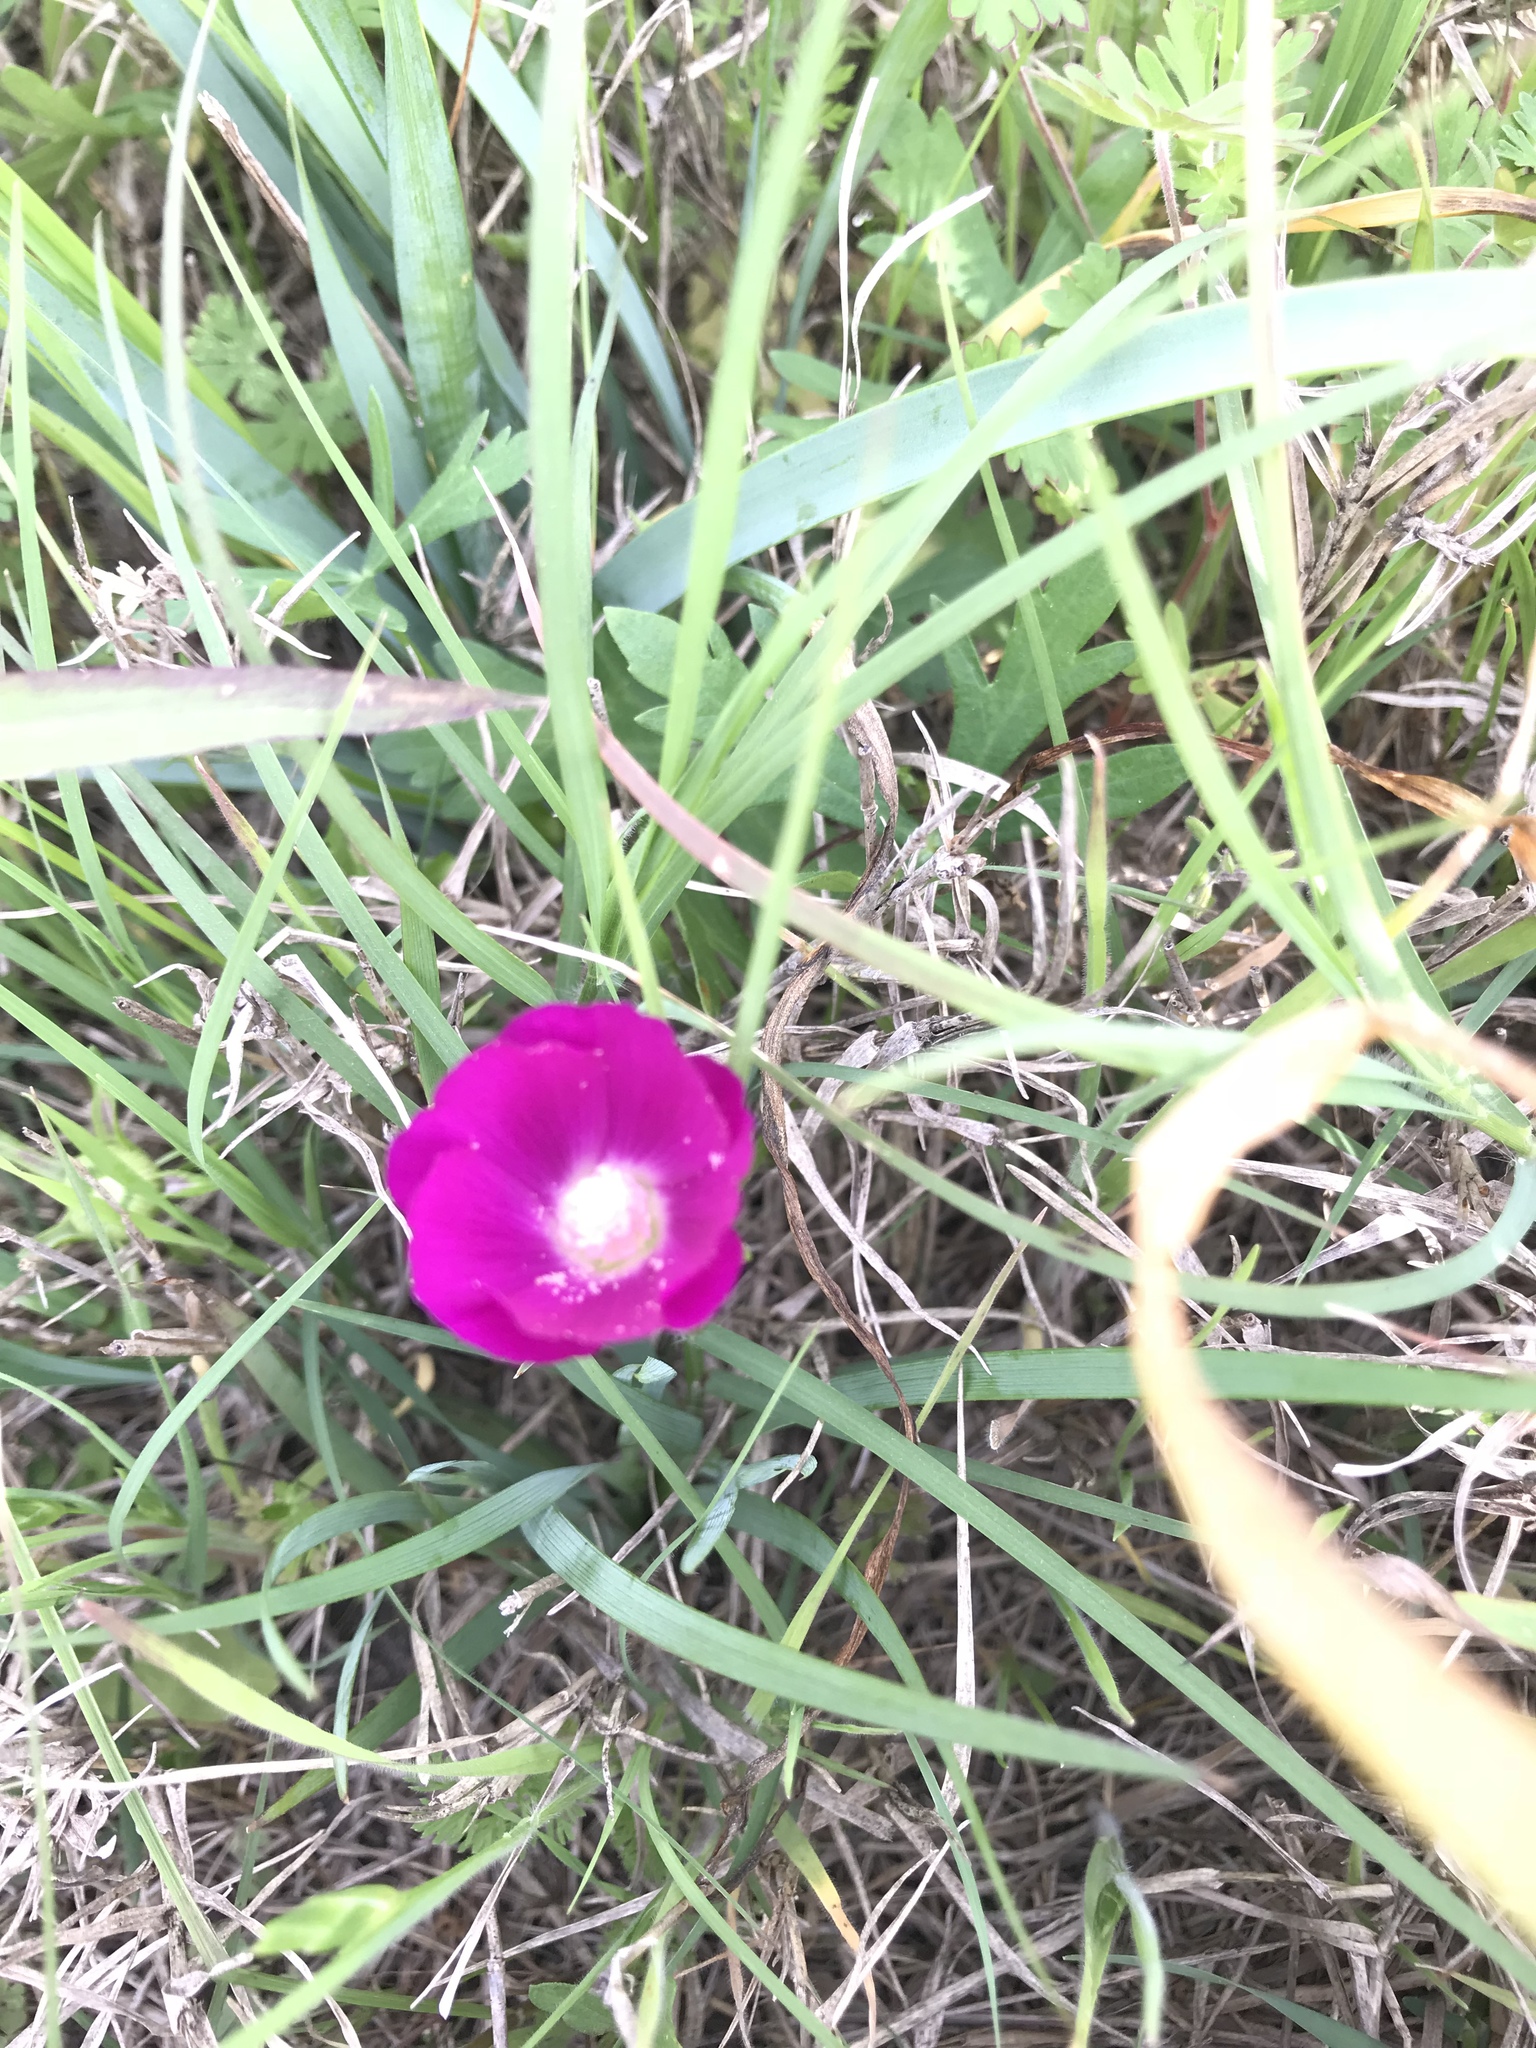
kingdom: Plantae
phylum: Tracheophyta
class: Magnoliopsida
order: Malvales
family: Malvaceae
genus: Callirhoe
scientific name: Callirhoe involucrata
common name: Purple poppy-mallow
